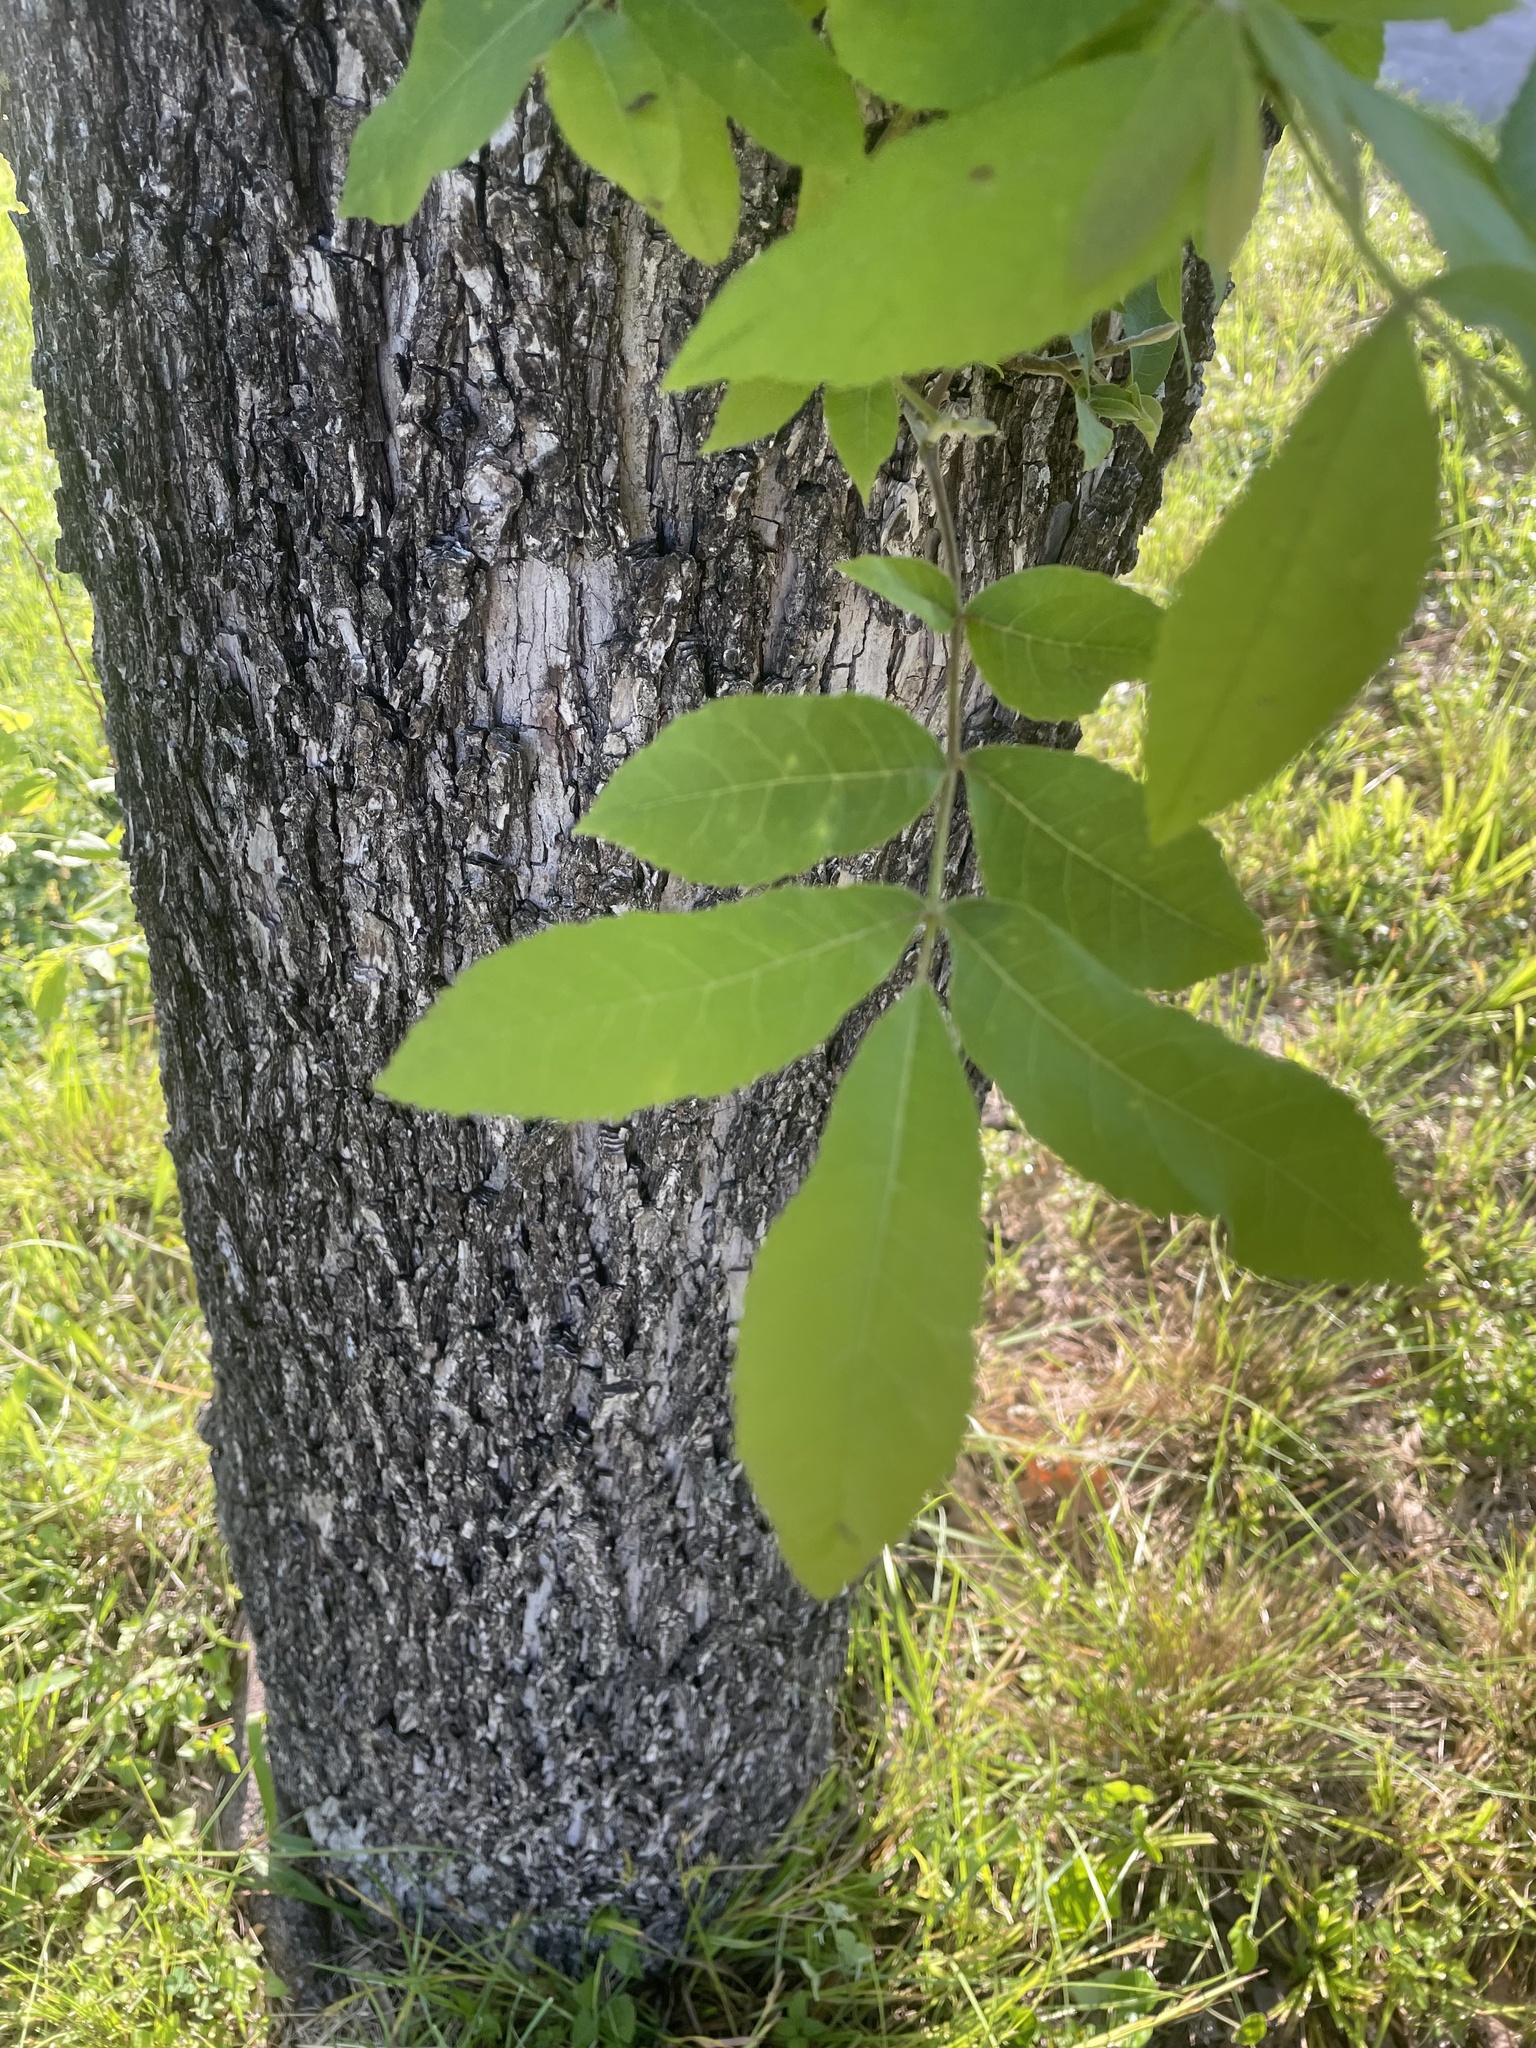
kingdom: Plantae
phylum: Tracheophyta
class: Magnoliopsida
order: Fagales
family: Juglandaceae
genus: Carya
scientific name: Carya illinoinensis
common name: Pecan
